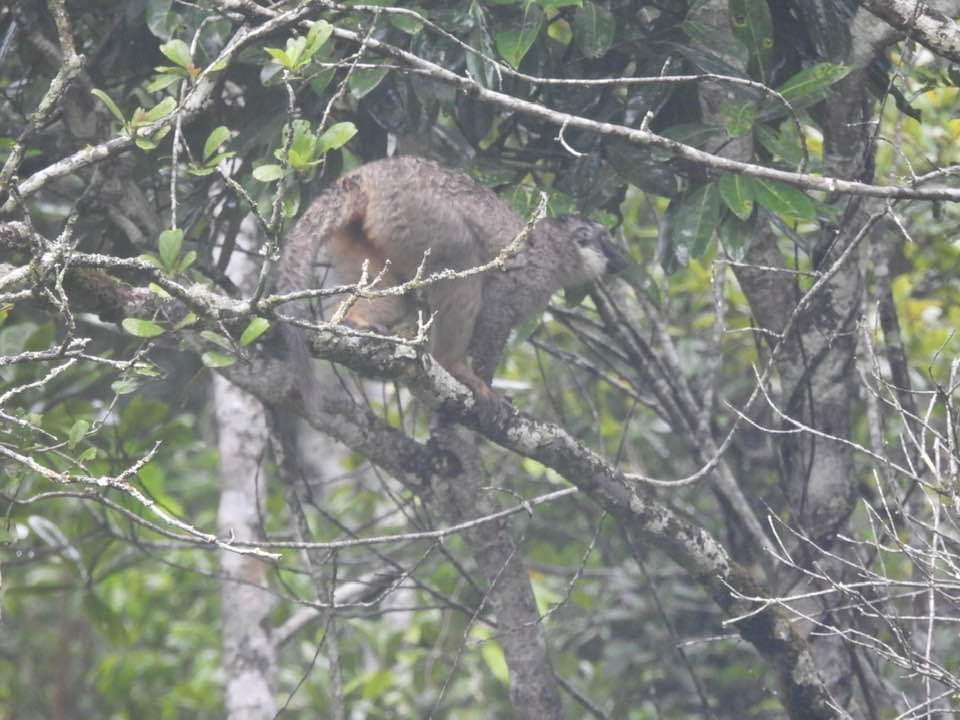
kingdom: Animalia
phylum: Chordata
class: Mammalia
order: Primates
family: Lemuridae
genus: Eulemur
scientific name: Eulemur fulvus
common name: Brown lemur
